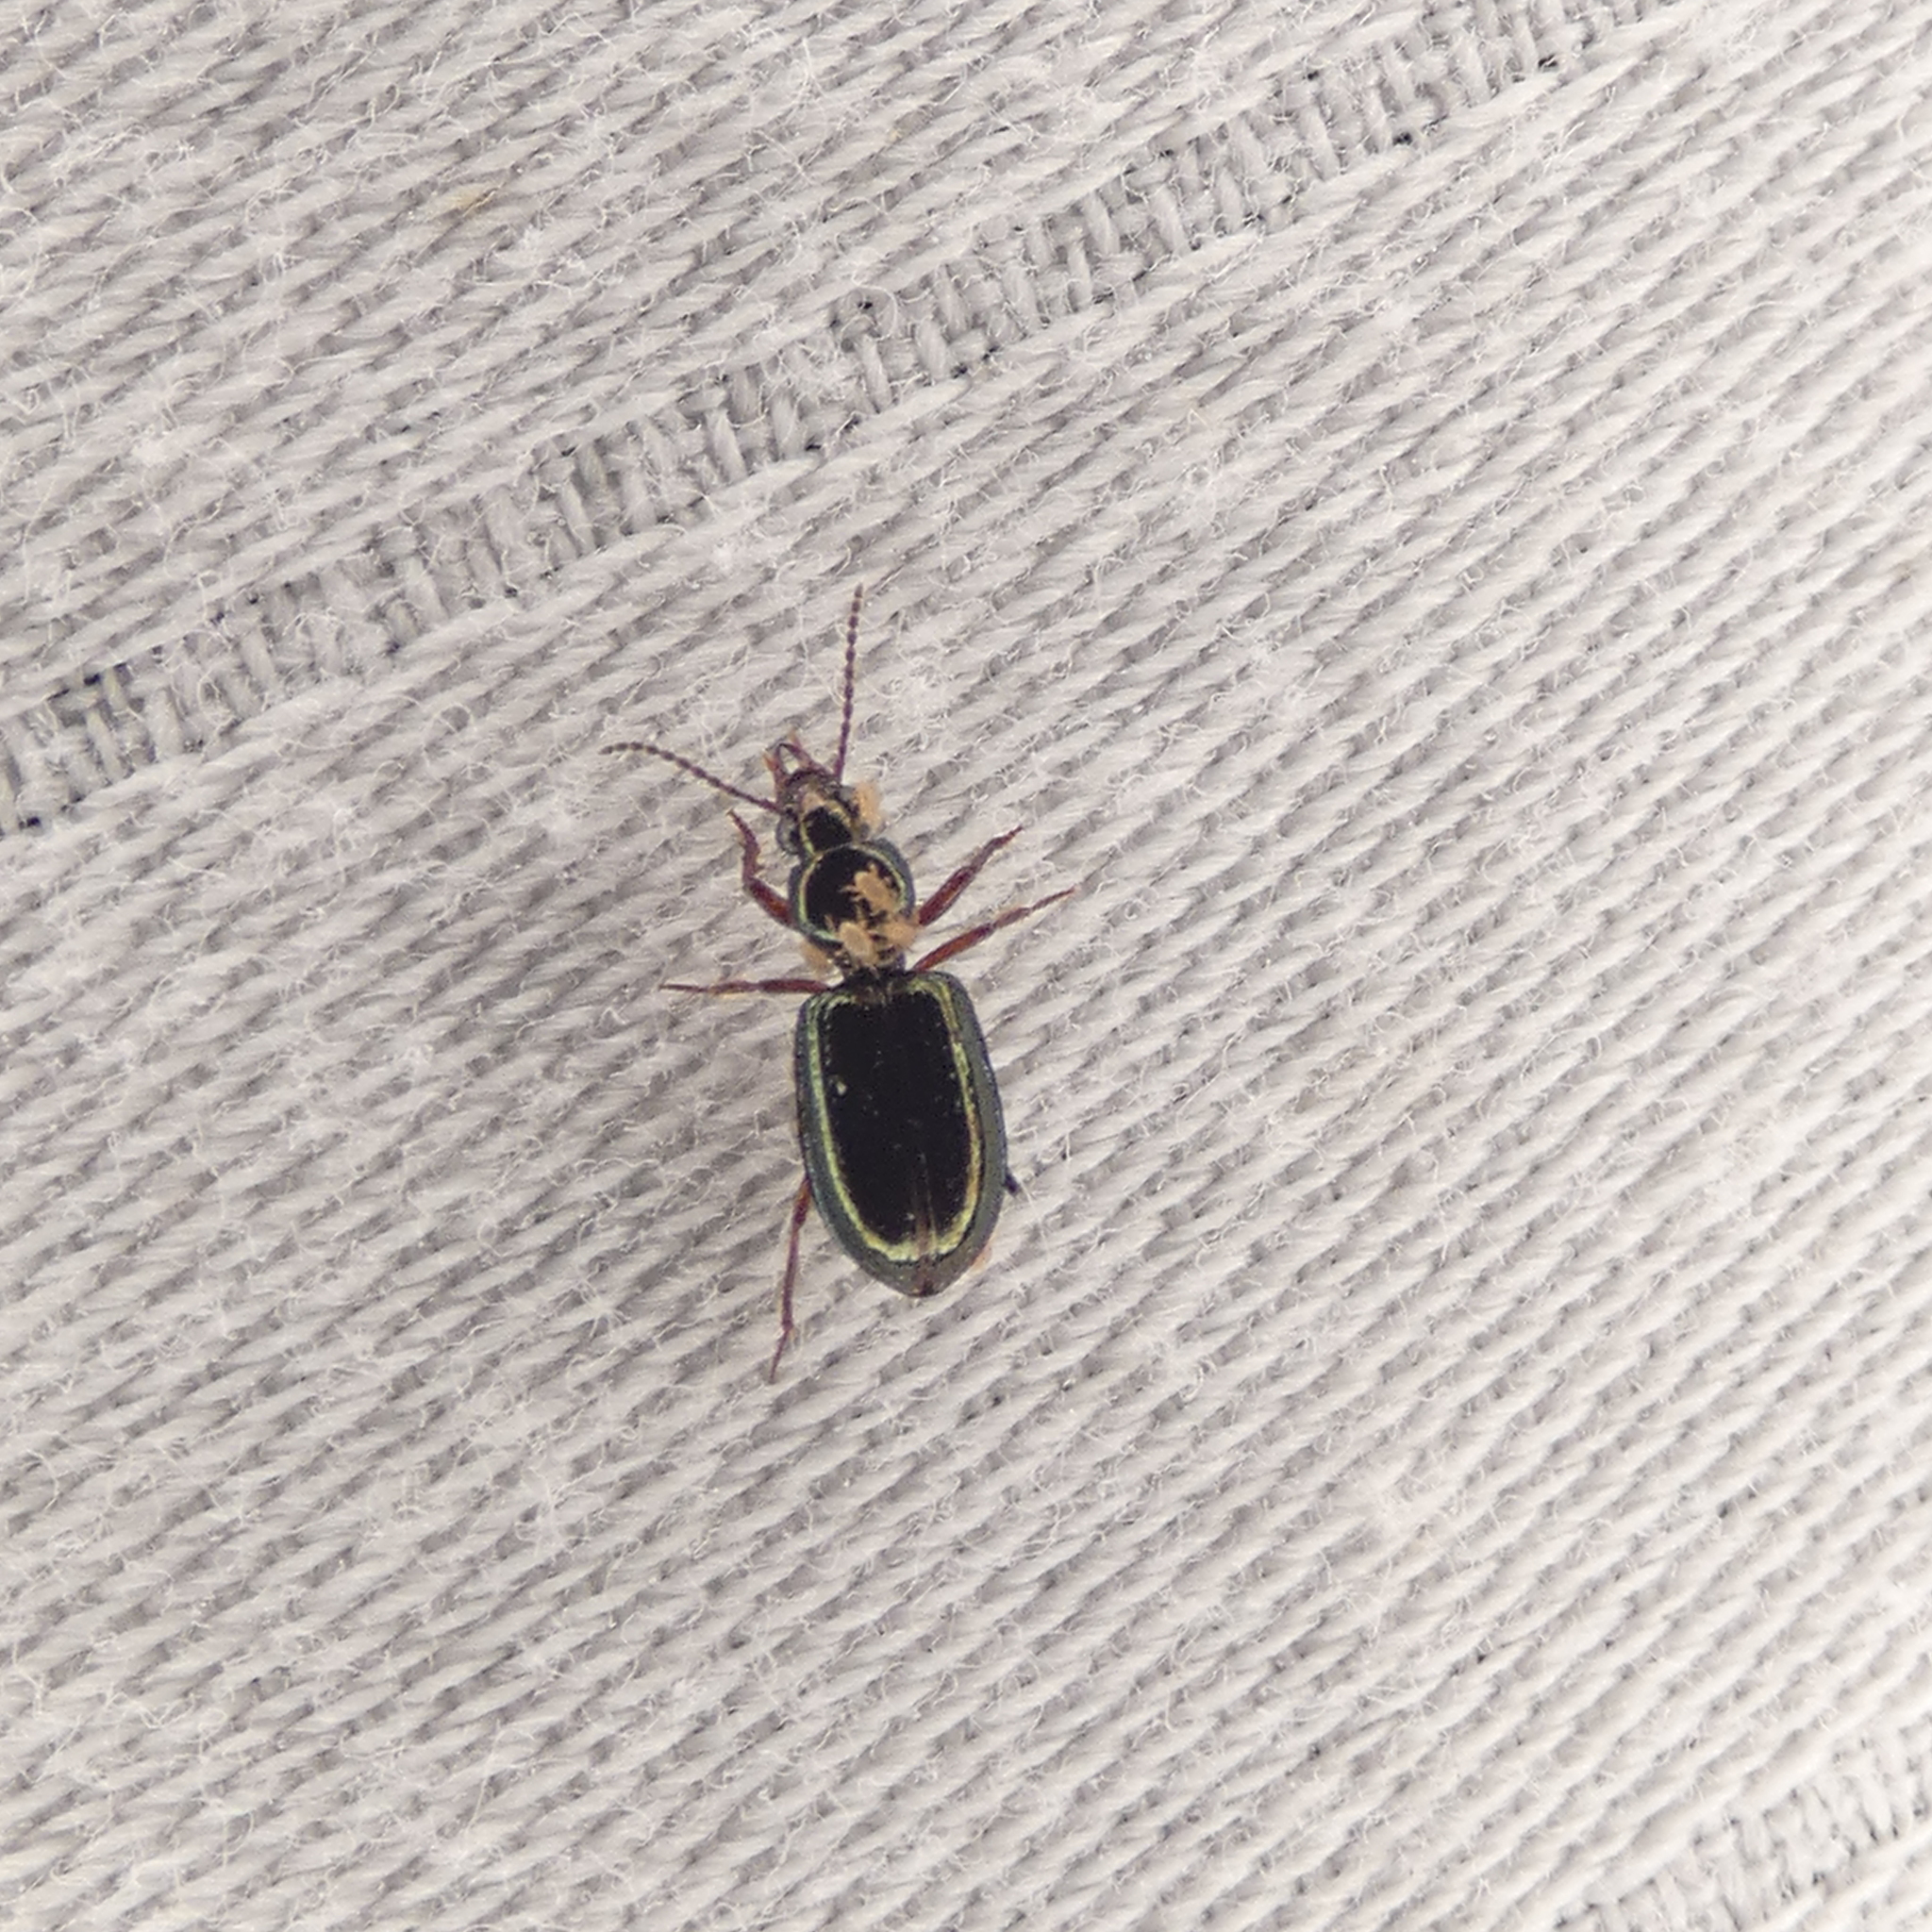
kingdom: Animalia
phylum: Arthropoda
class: Insecta
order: Coleoptera
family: Carabidae
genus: Semiardistomis
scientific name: Semiardistomis viridis
